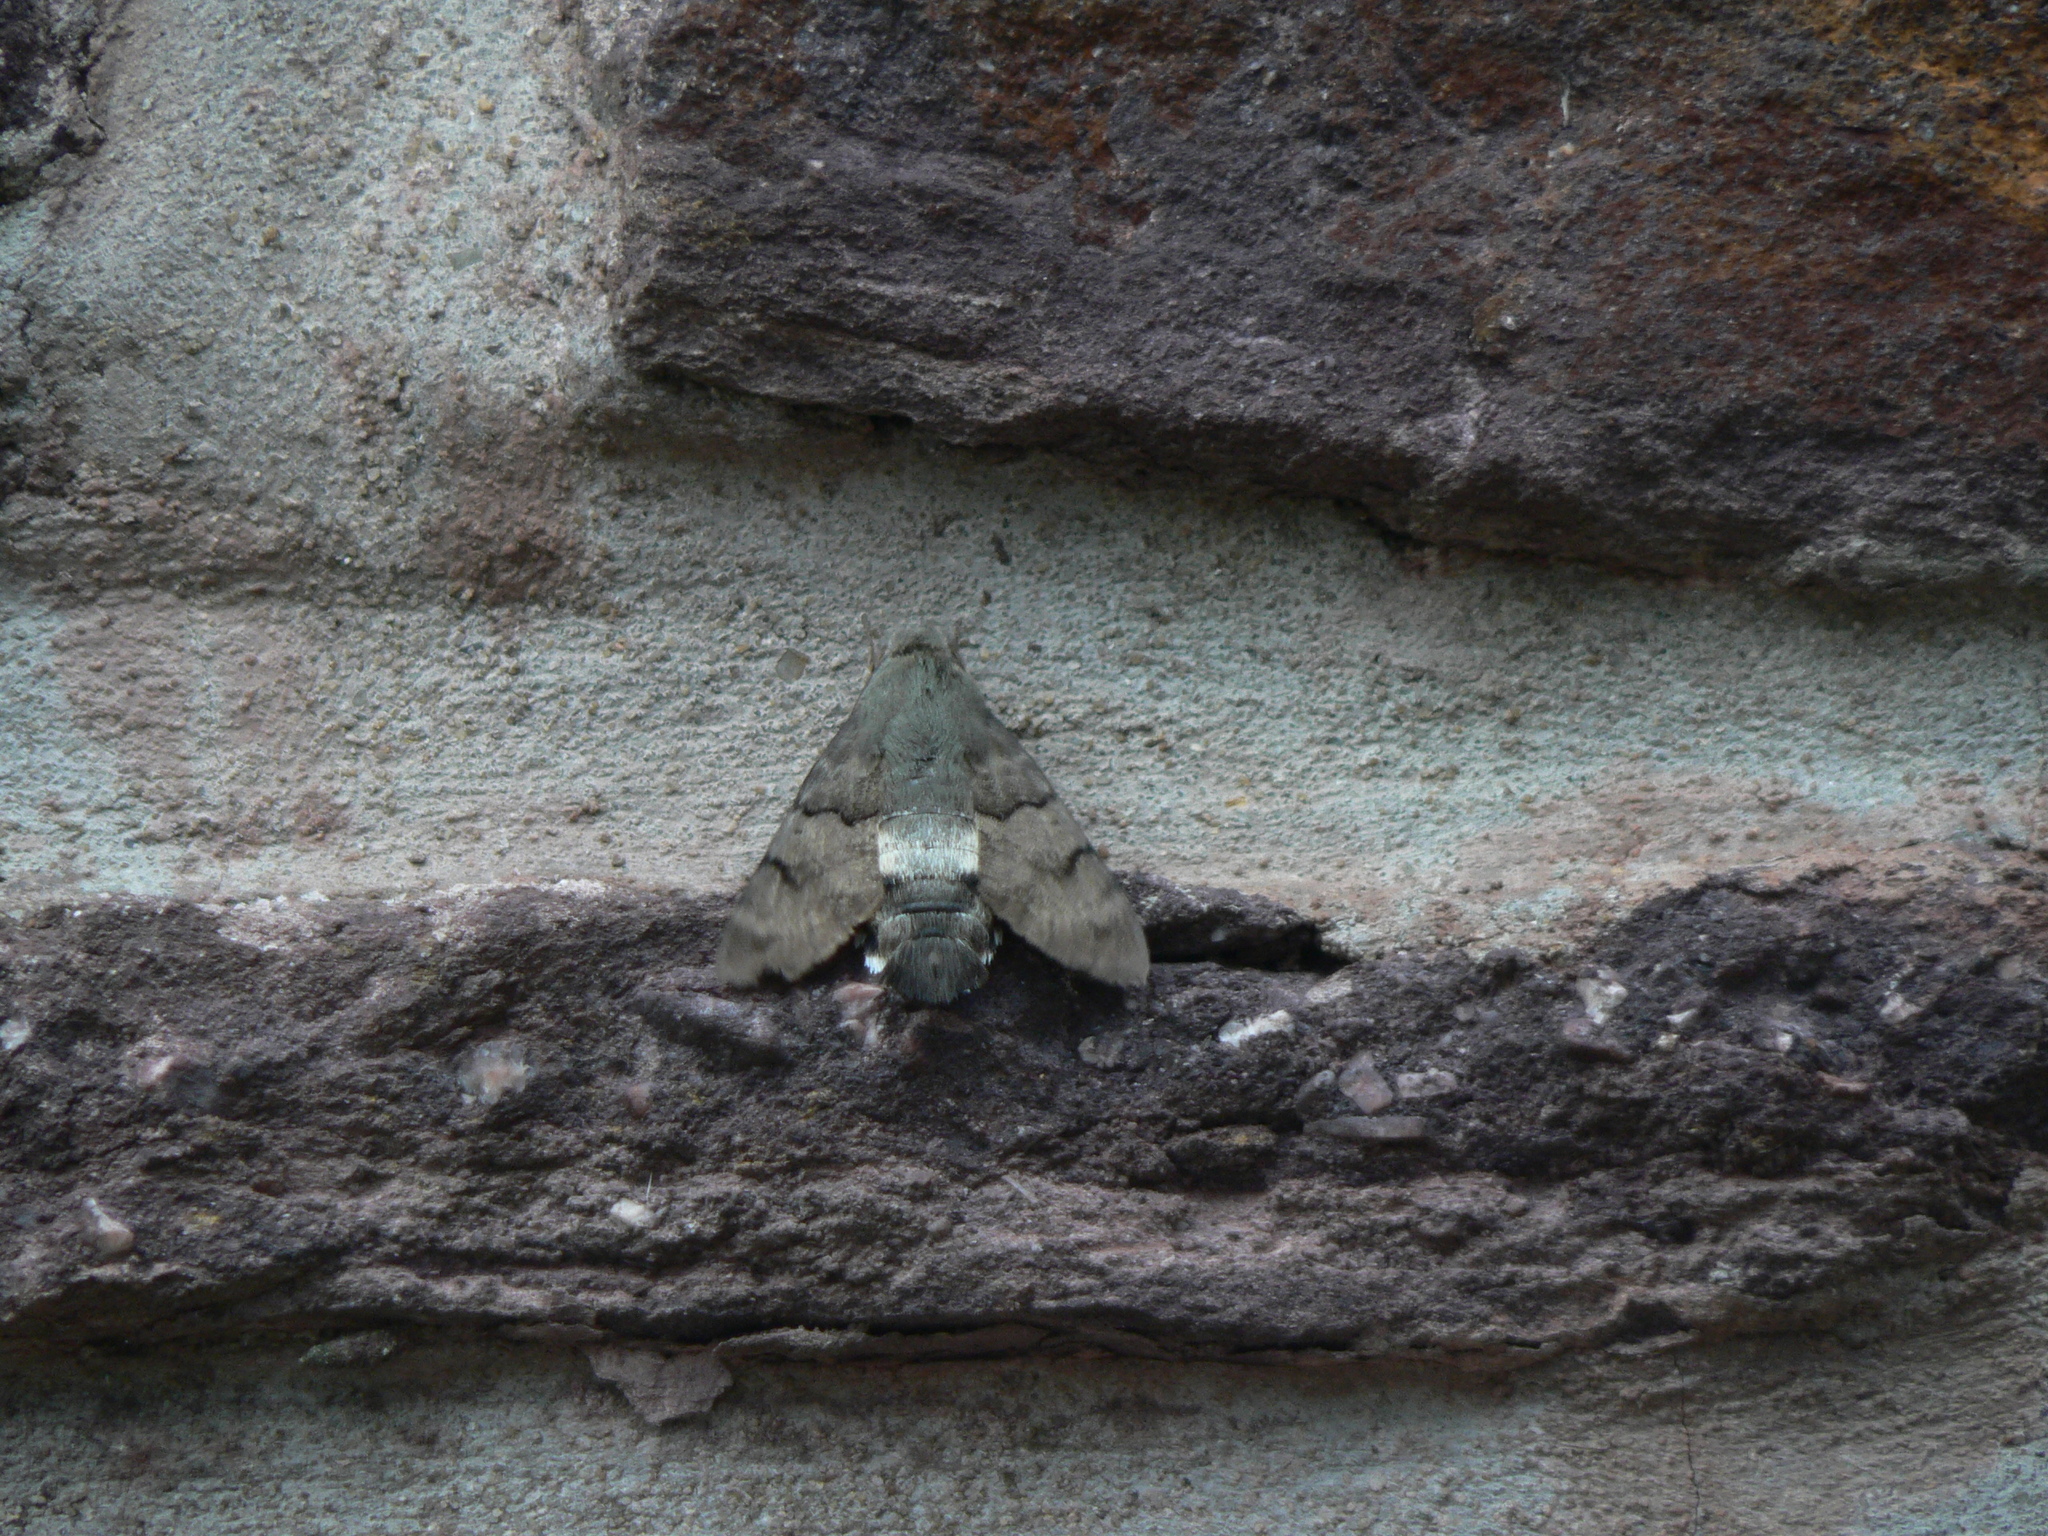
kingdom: Animalia
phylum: Arthropoda
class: Insecta
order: Lepidoptera
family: Sphingidae
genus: Macroglossum
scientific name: Macroglossum stellatarum
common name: Humming-bird hawk-moth
